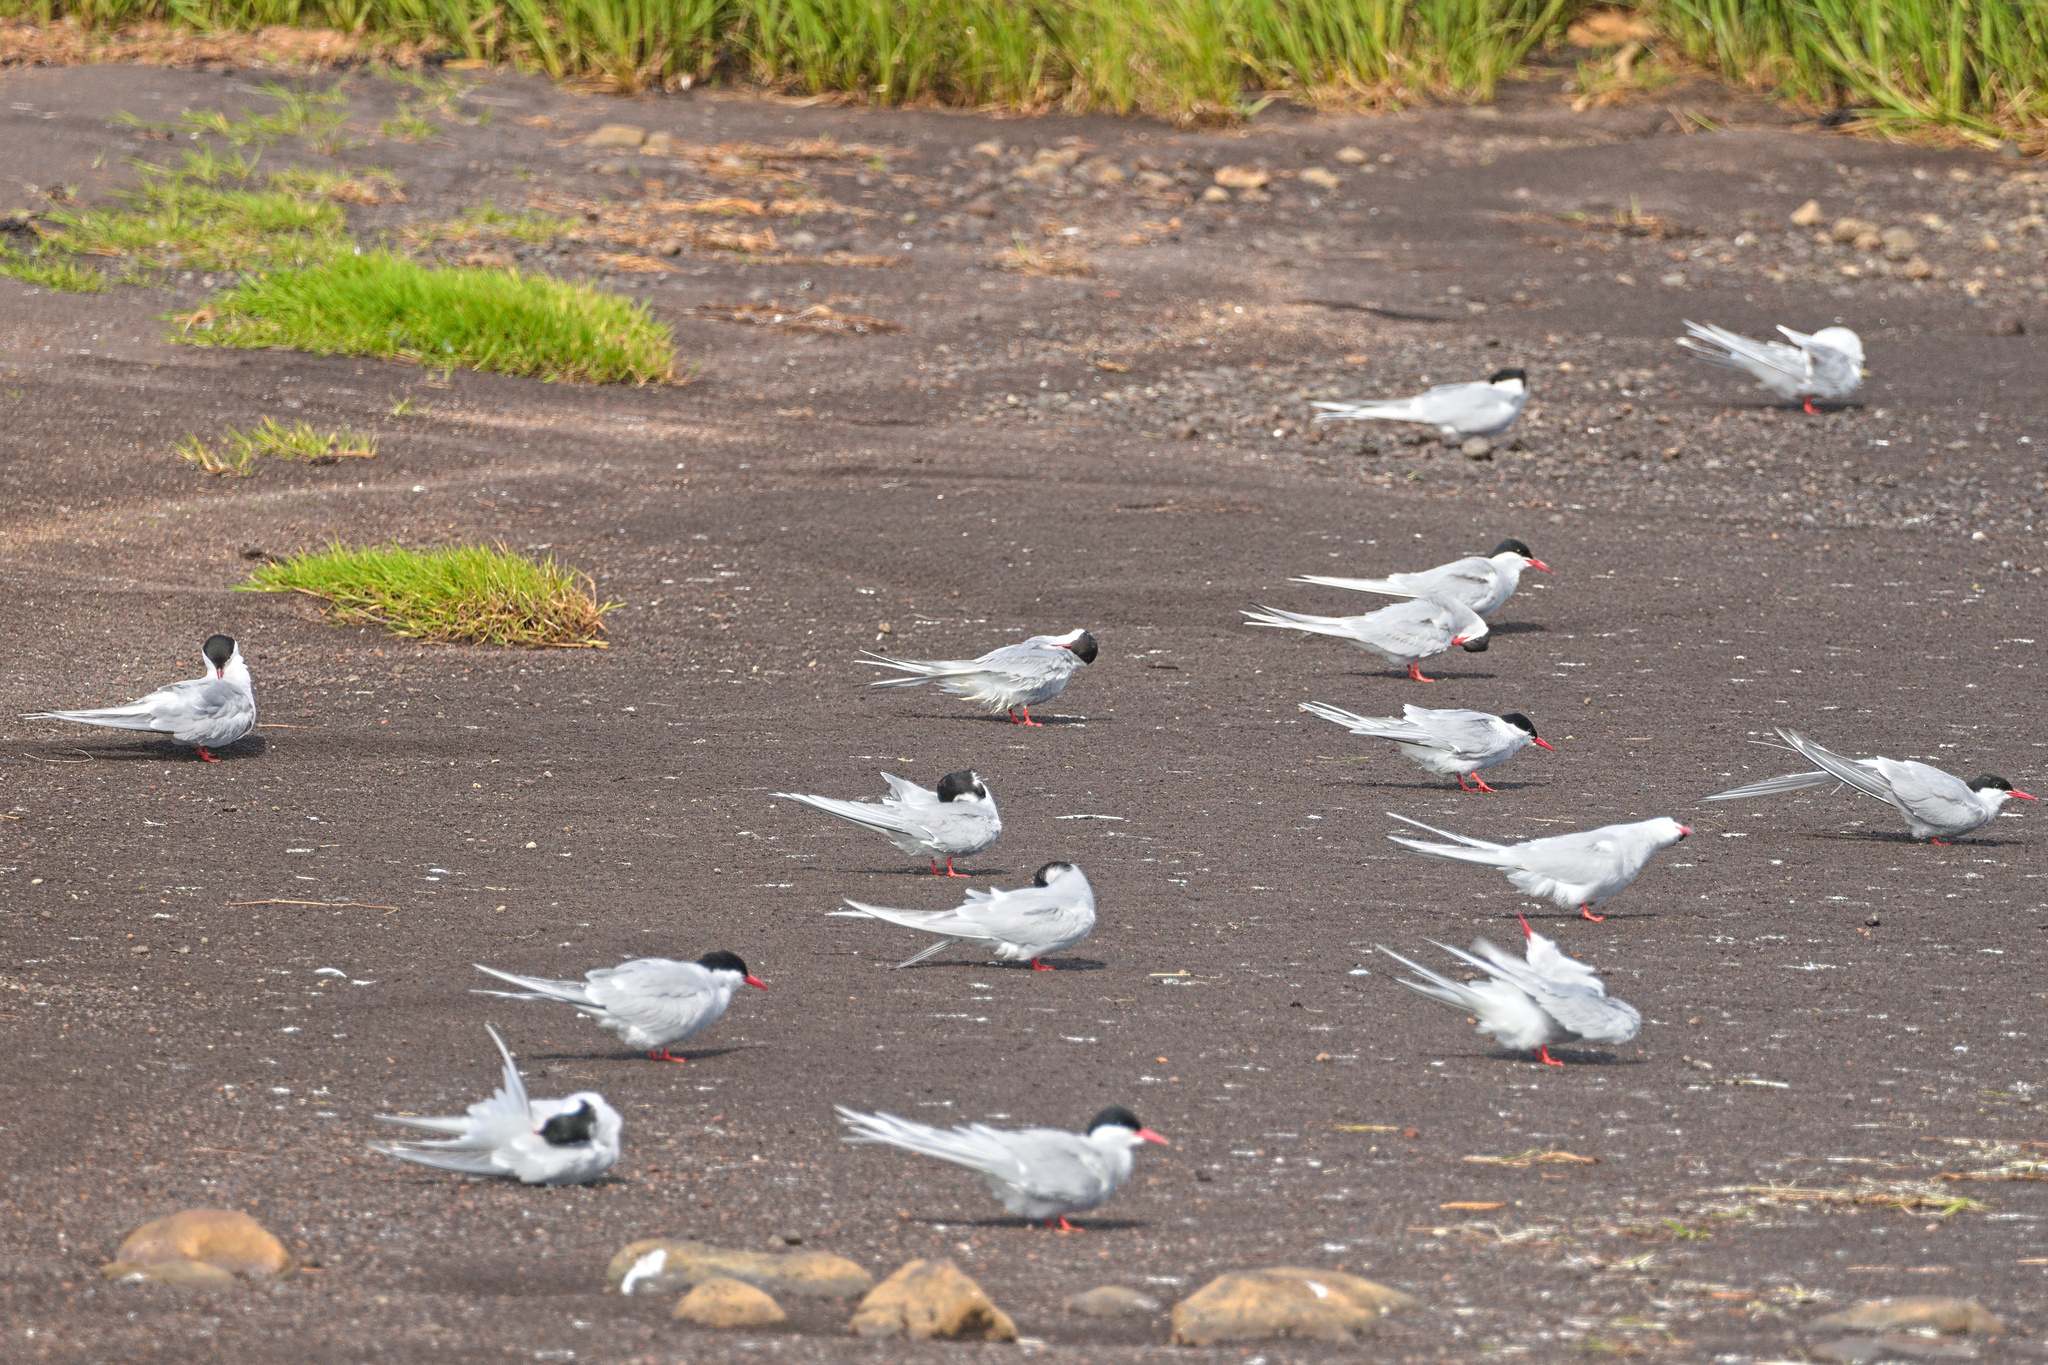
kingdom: Animalia
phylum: Chordata
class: Aves
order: Charadriiformes
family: Laridae
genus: Sterna
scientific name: Sterna paradisaea
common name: Arctic tern
